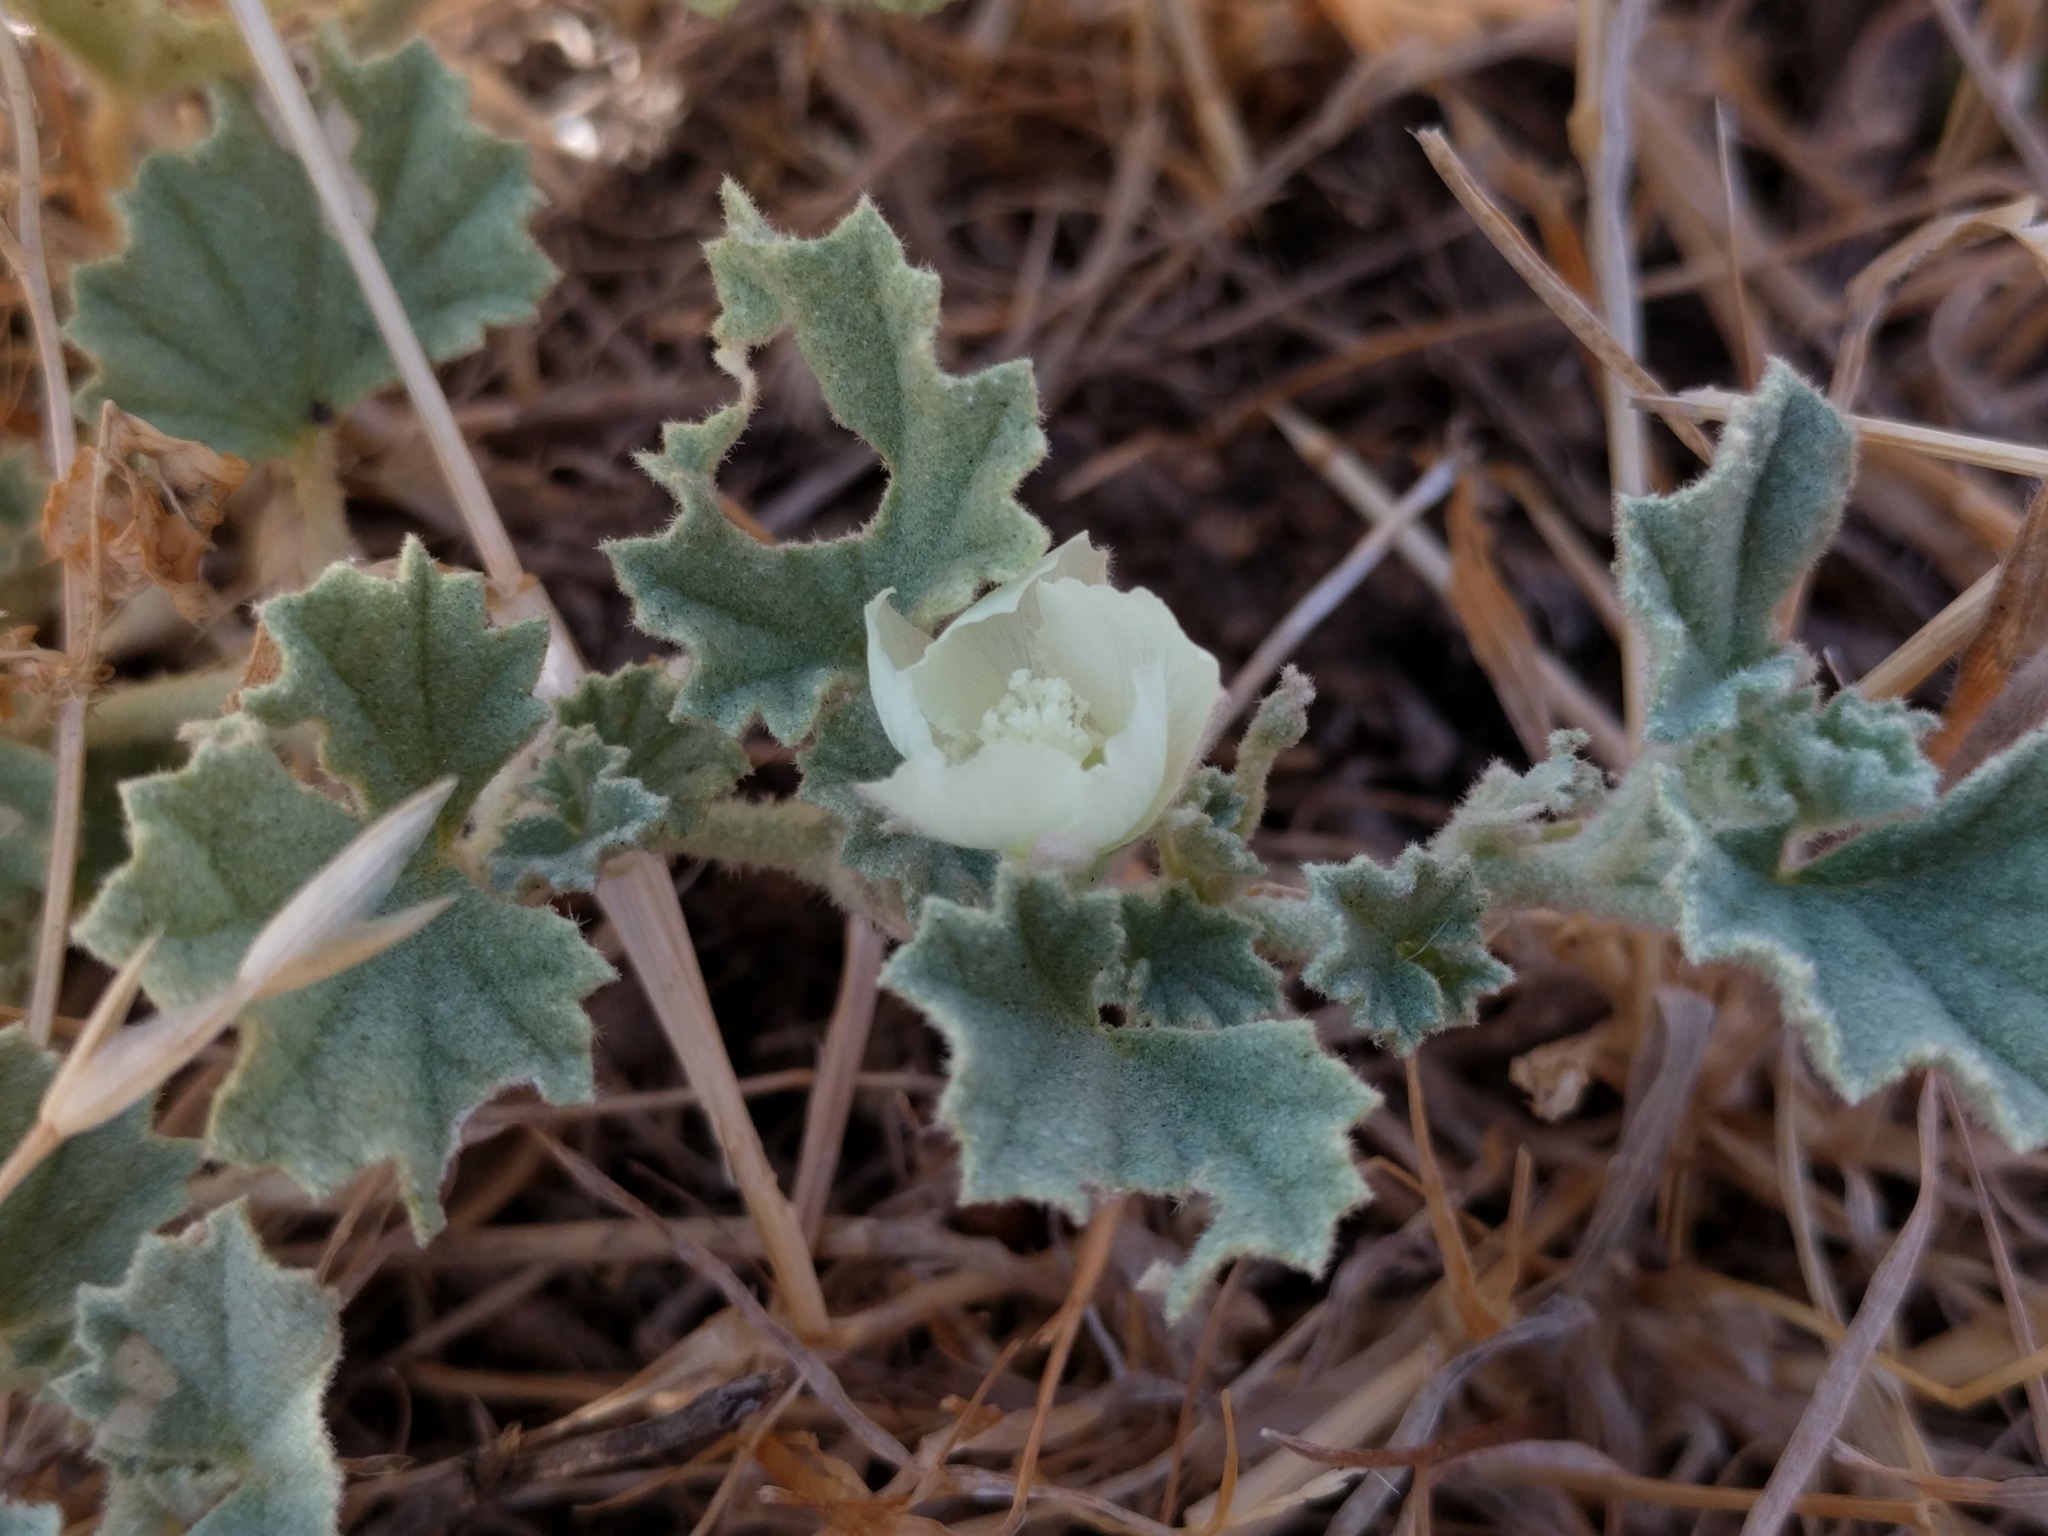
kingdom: Plantae
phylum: Tracheophyta
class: Magnoliopsida
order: Malvales
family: Malvaceae
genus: Malvella
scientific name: Malvella leprosa
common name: Alkali-mallow
